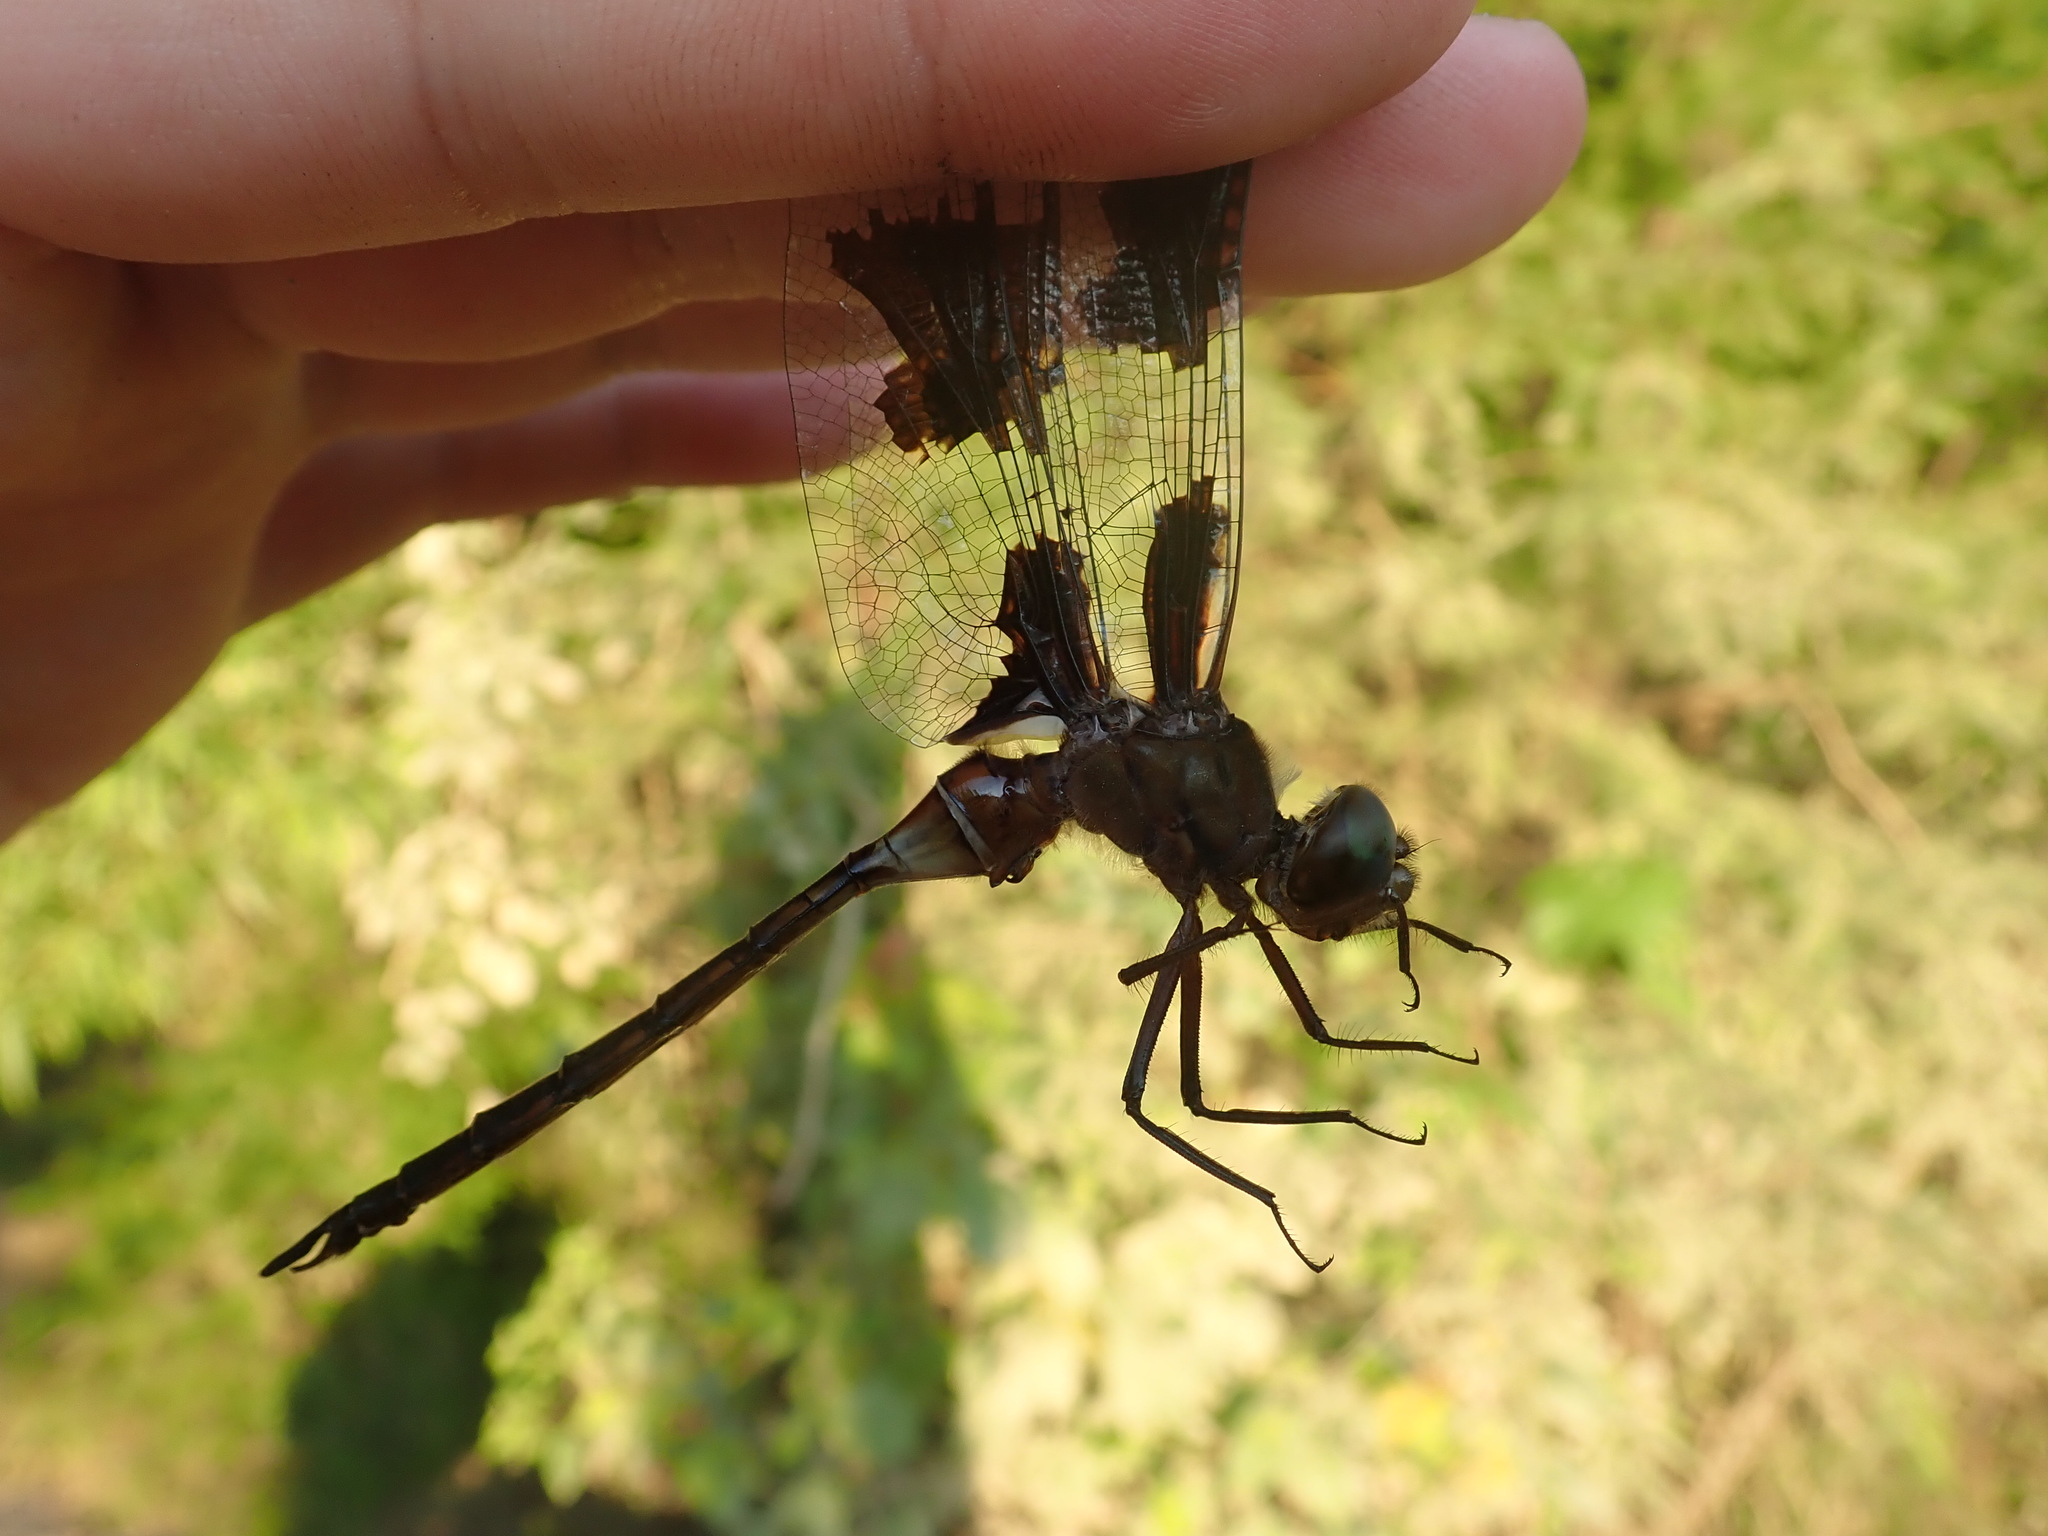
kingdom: Animalia
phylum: Arthropoda
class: Insecta
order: Odonata
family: Corduliidae
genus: Epitheca
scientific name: Epitheca princeps
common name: Prince baskettail
